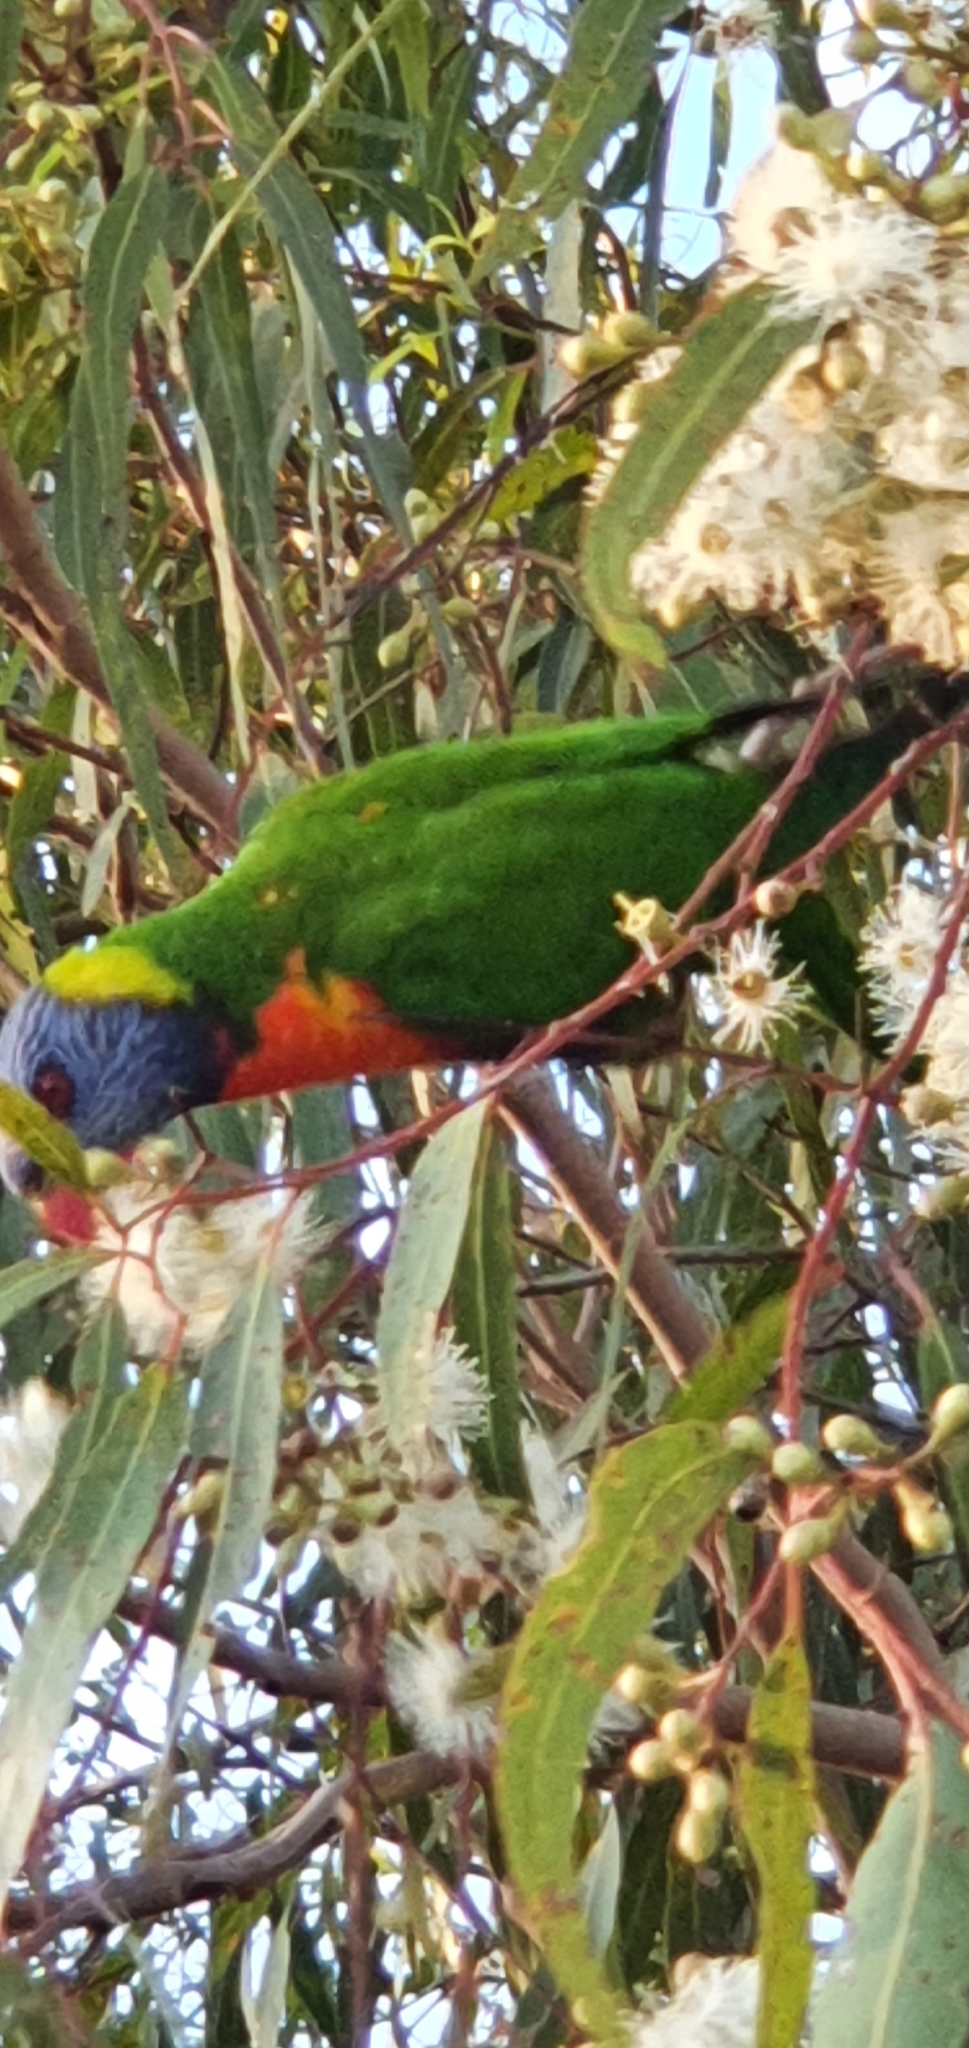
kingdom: Animalia
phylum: Chordata
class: Aves
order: Psittaciformes
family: Psittacidae
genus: Trichoglossus
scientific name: Trichoglossus haematodus
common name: Coconut lorikeet
